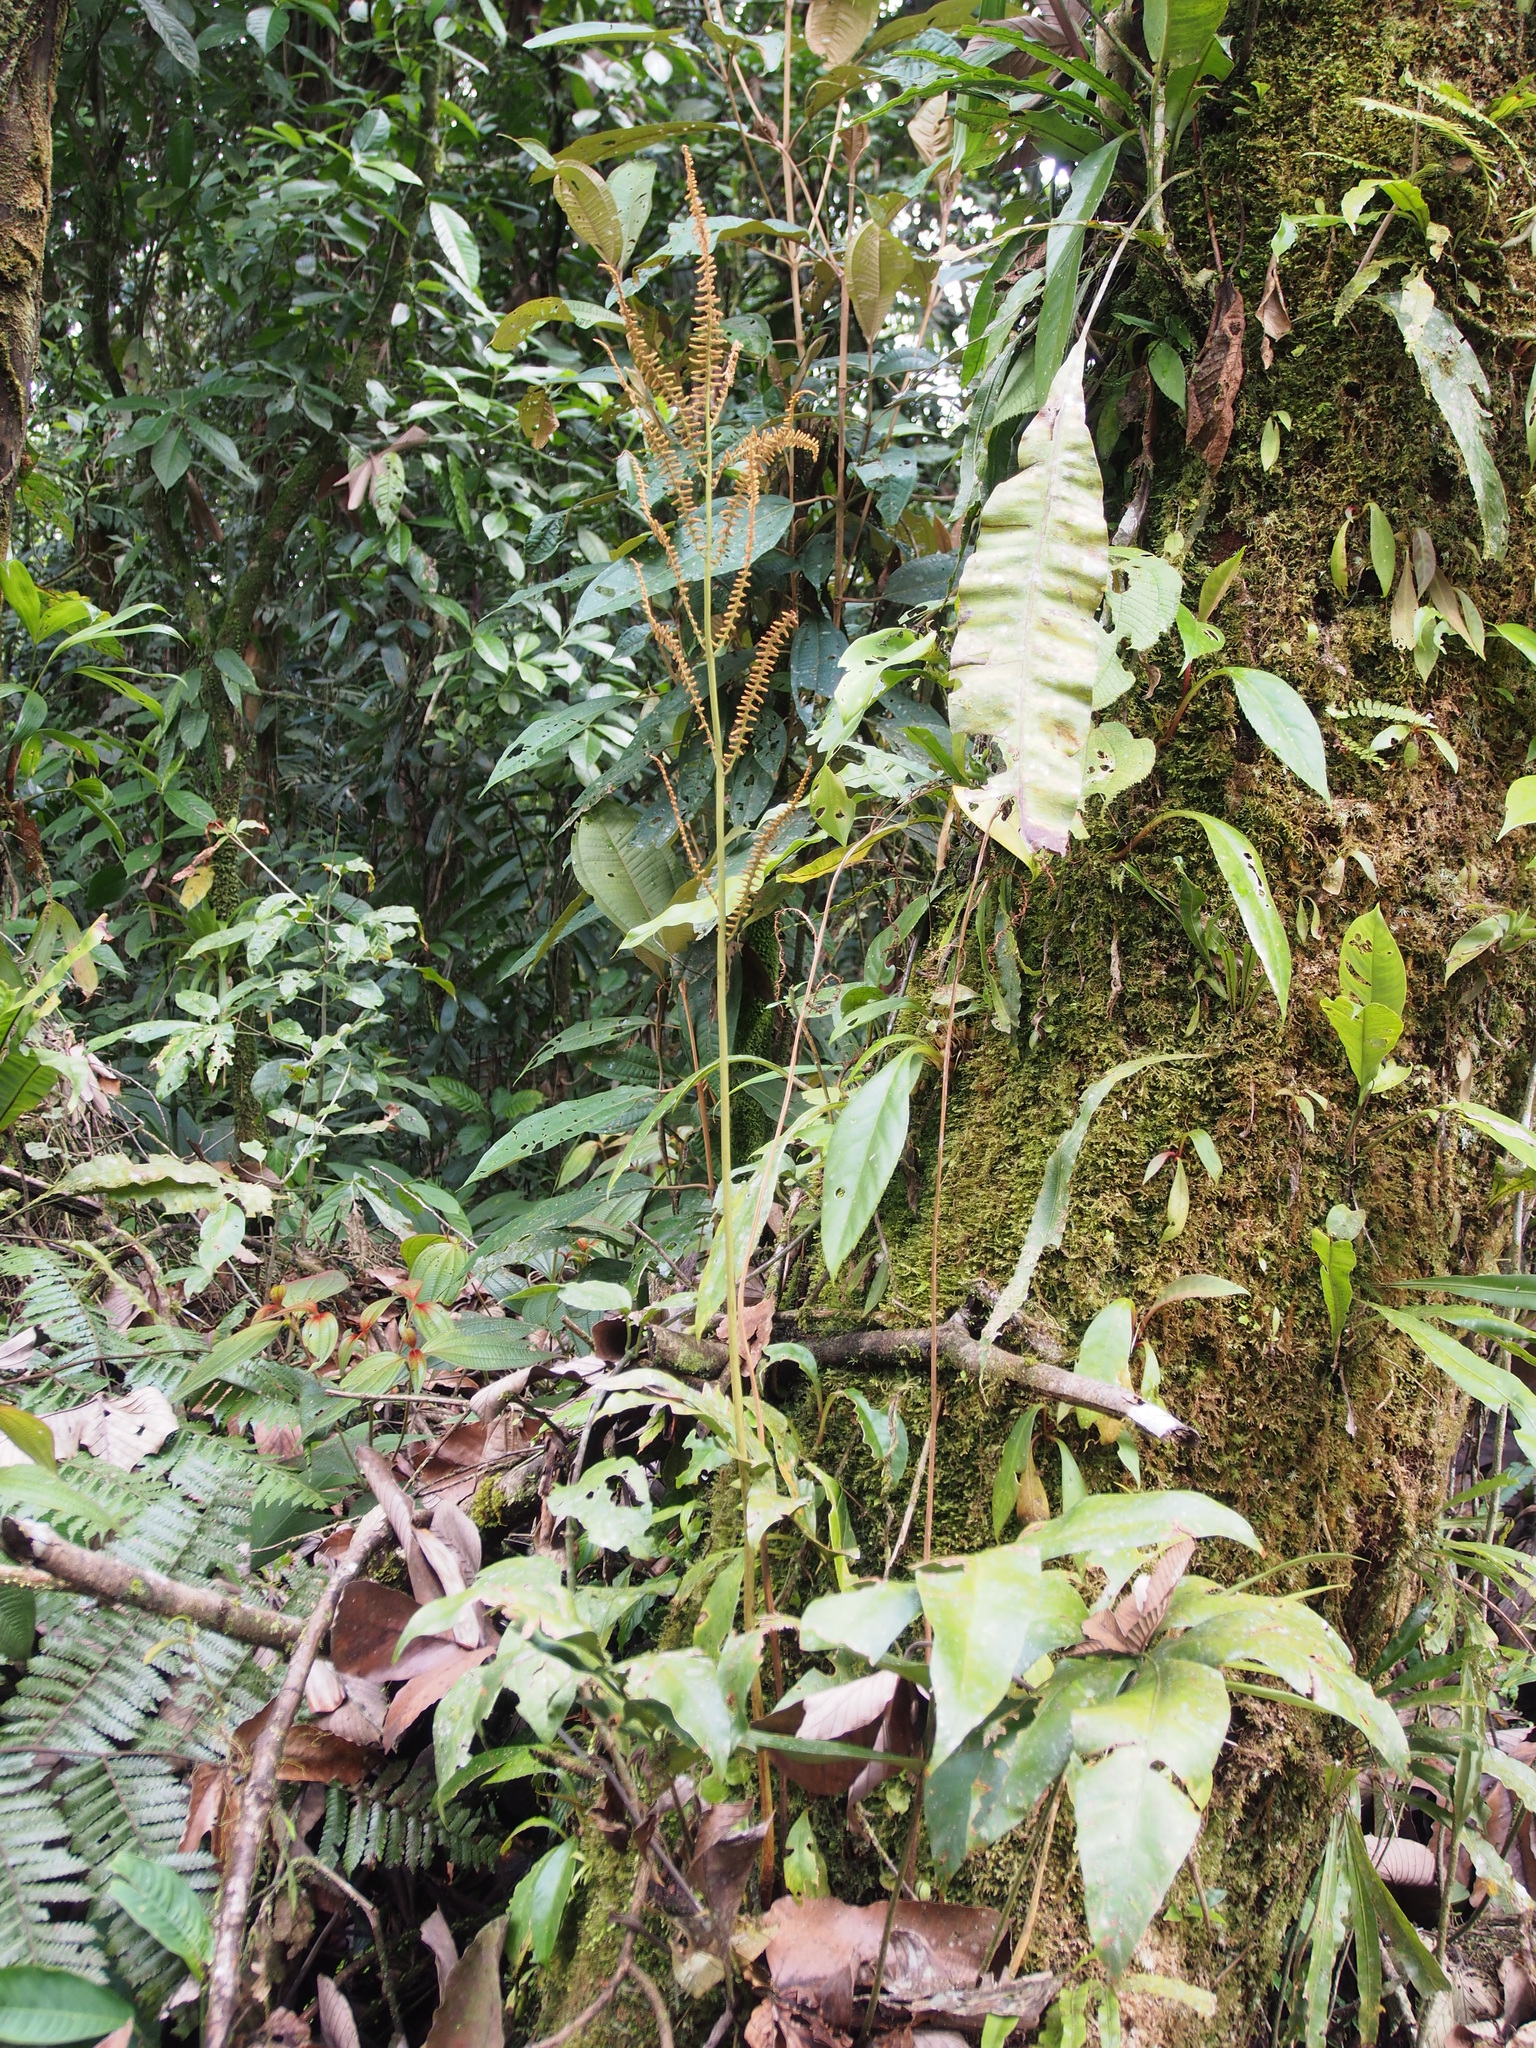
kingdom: Plantae
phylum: Tracheophyta
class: Polypodiopsida
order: Polypodiales
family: Dryopteridaceae
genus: Olfersia
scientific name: Olfersia cervina
